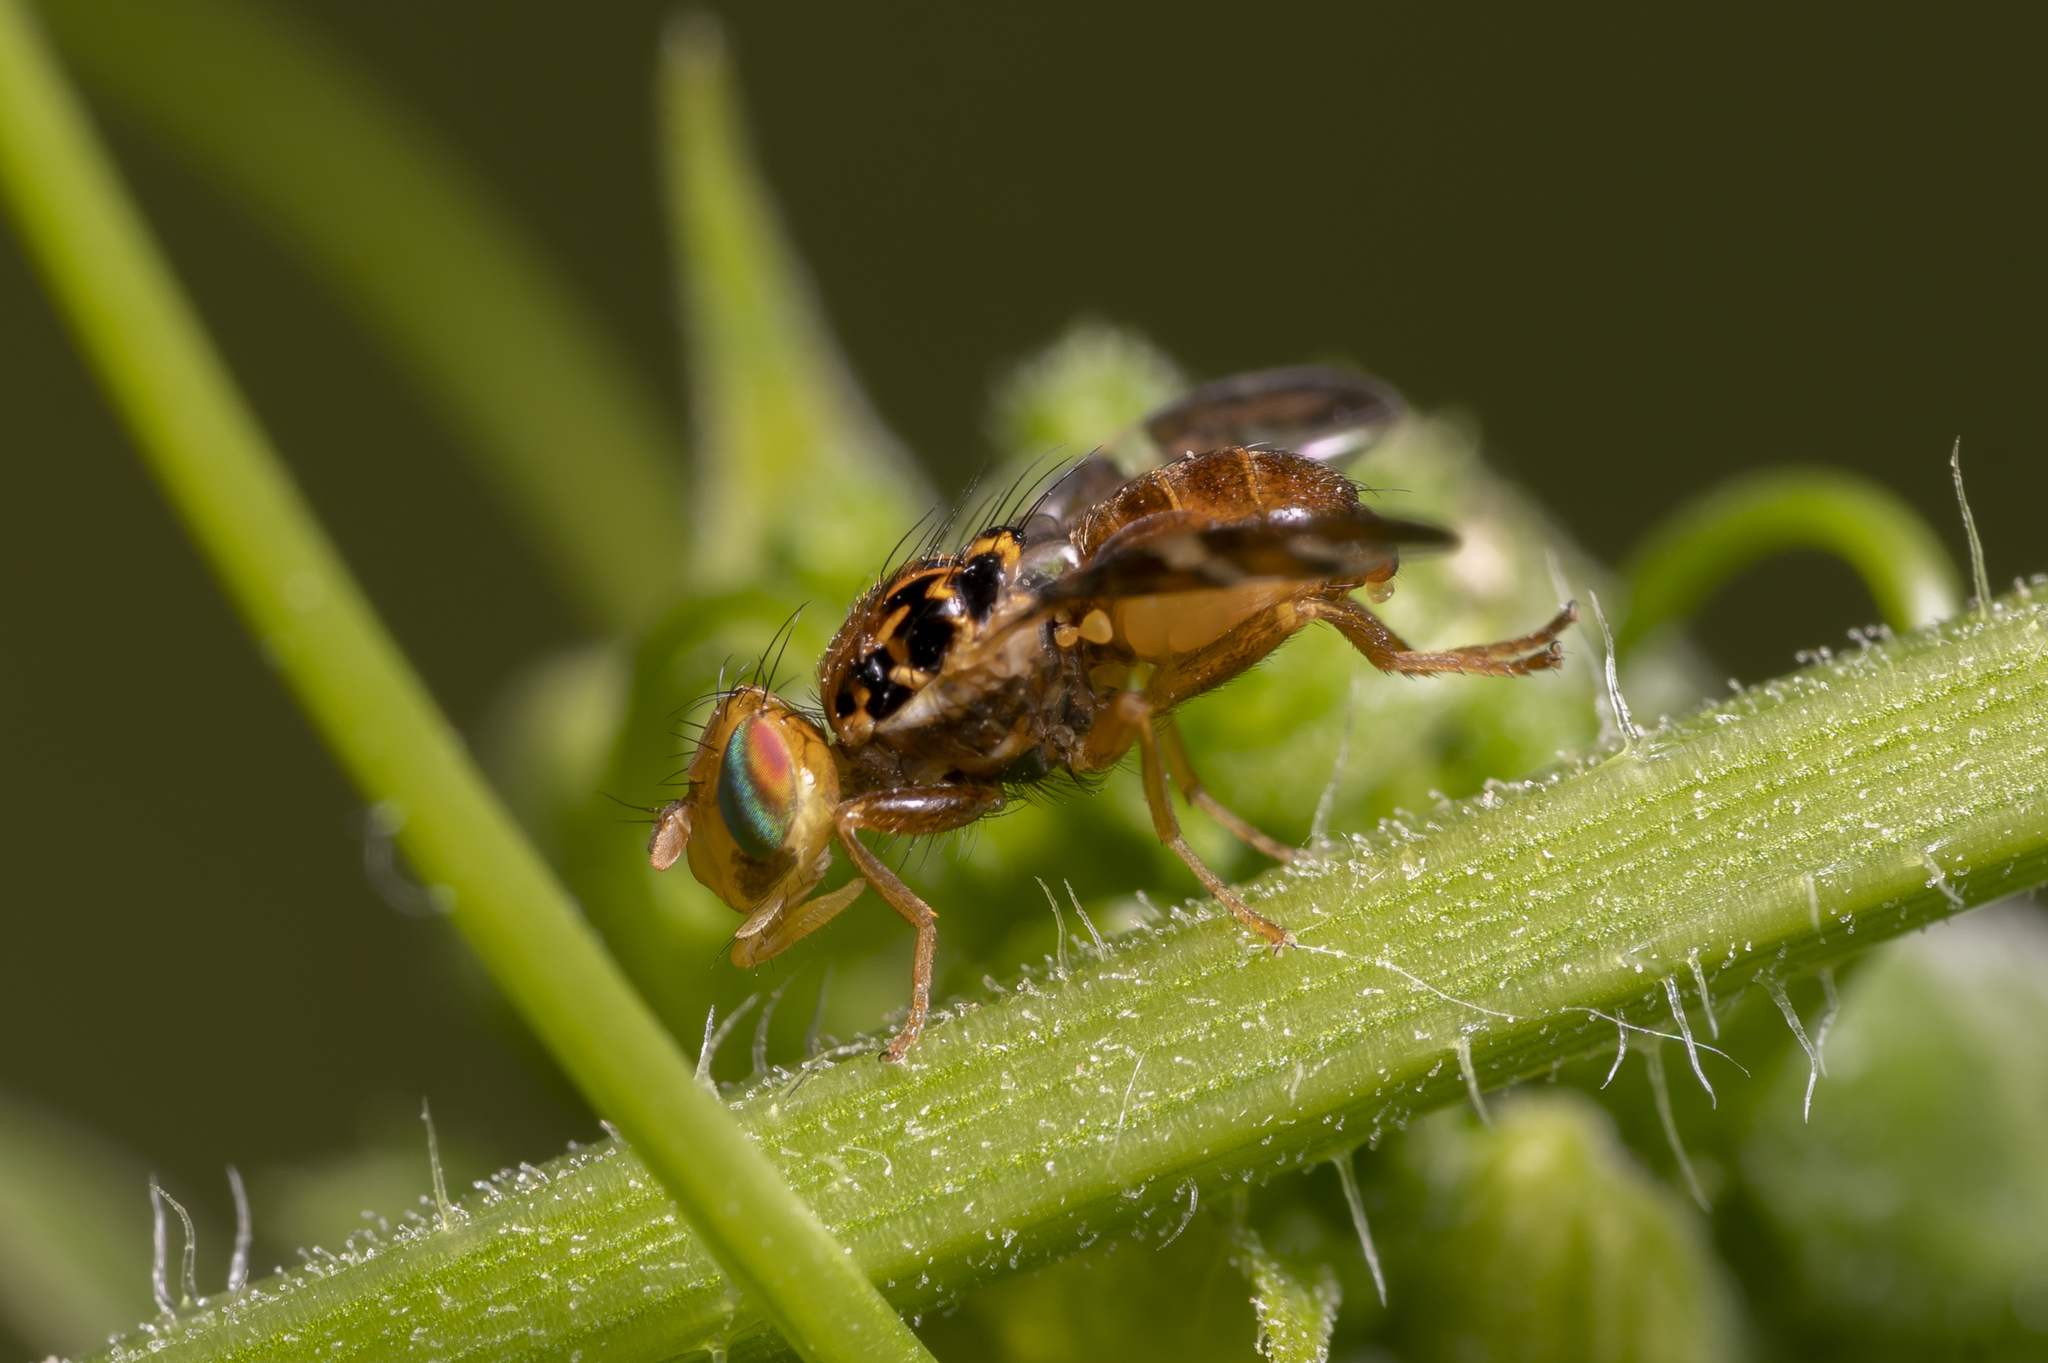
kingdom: Animalia
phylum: Arthropoda
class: Insecta
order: Diptera
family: Tephritidae
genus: Carpomya
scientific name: Carpomya wiedemanni
